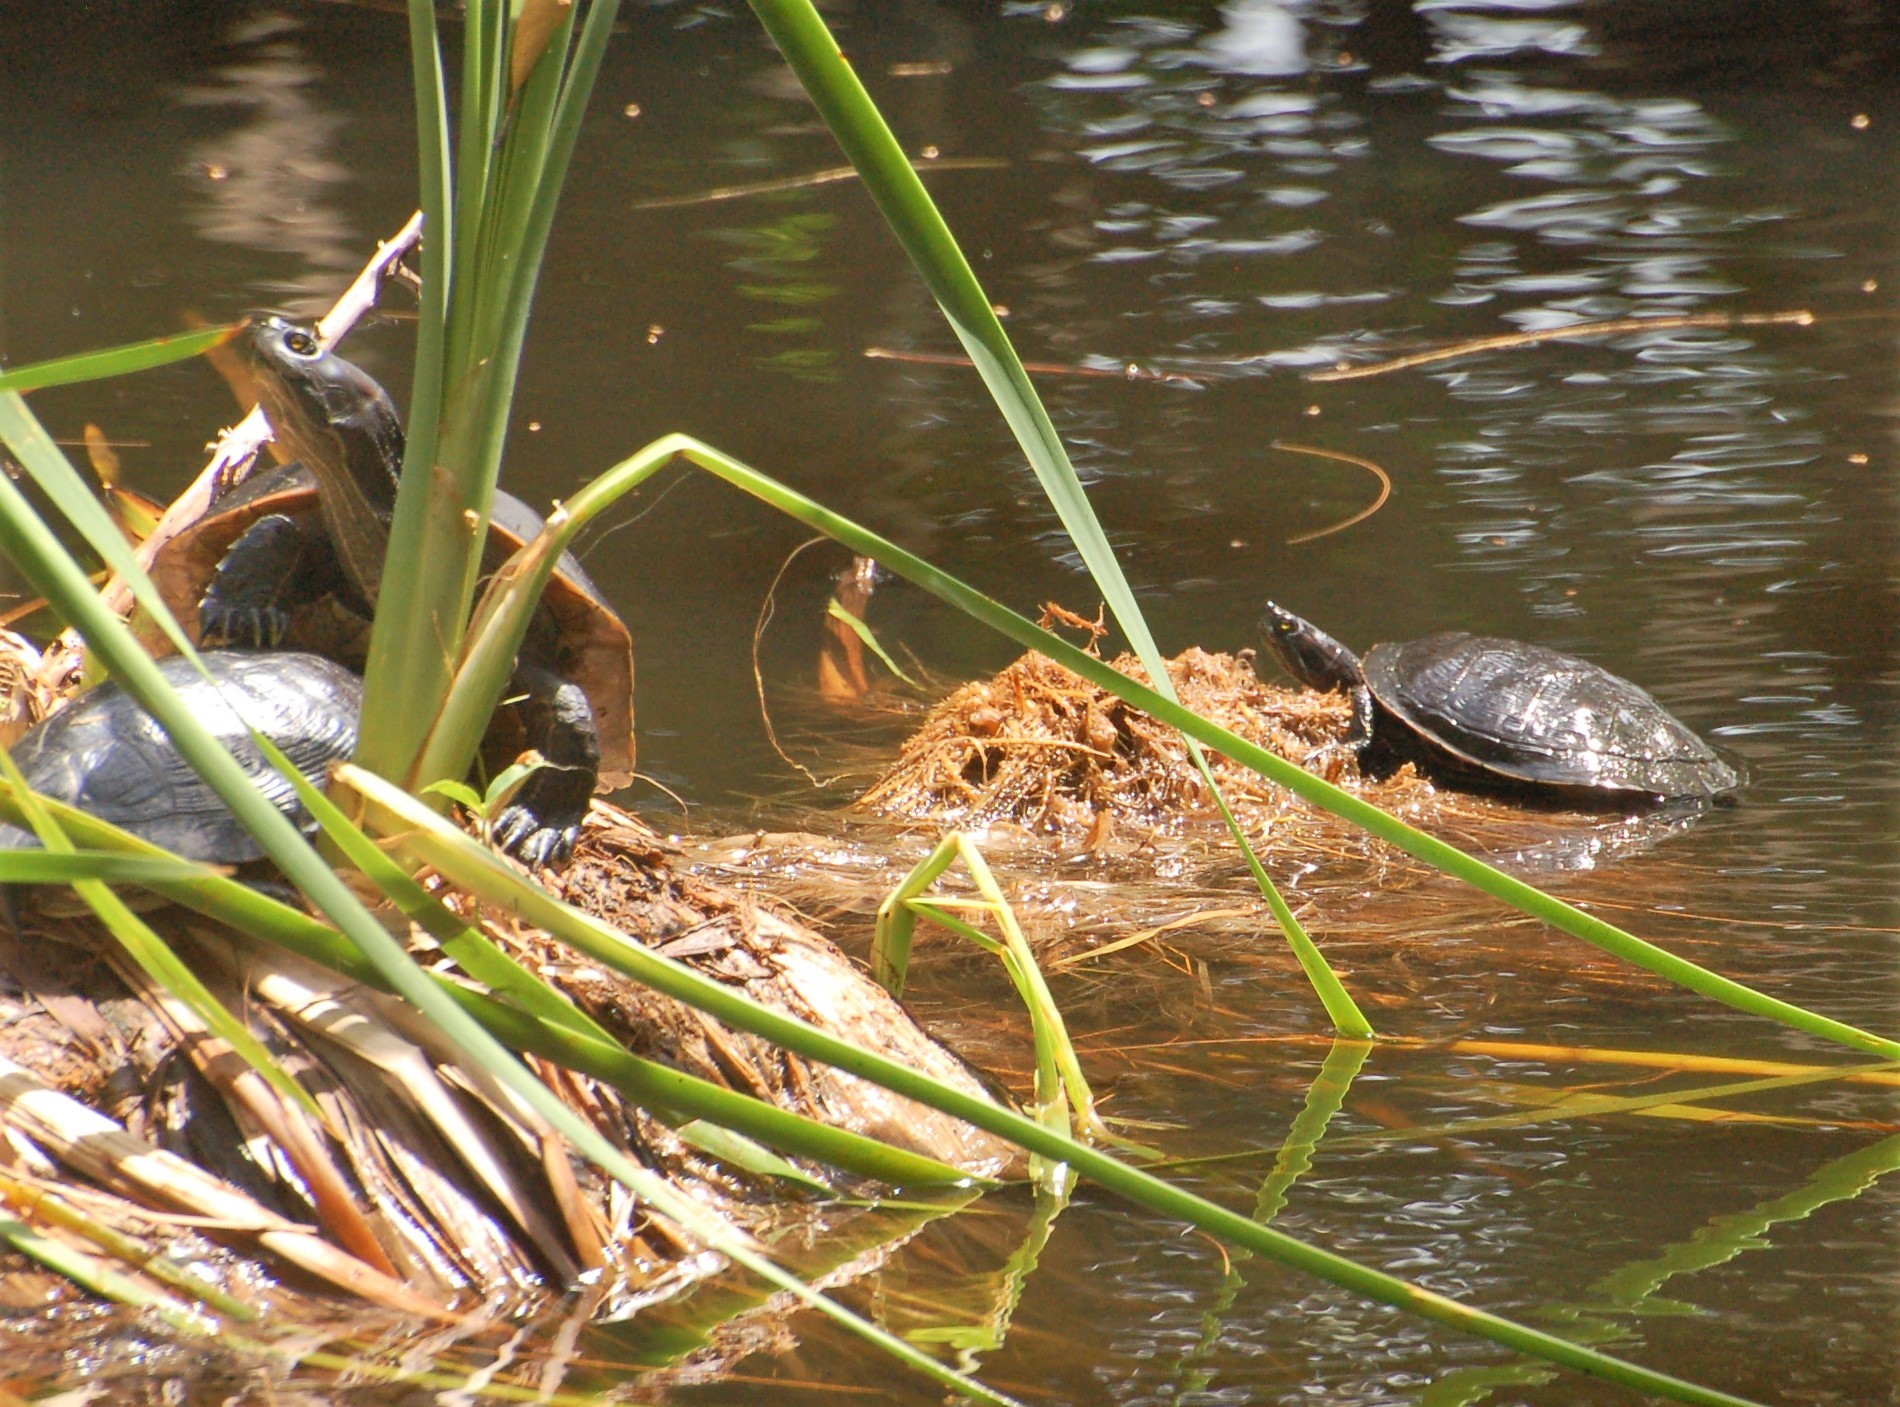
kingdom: Animalia
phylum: Chordata
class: Testudines
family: Emydidae
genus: Trachemys
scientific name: Trachemys stejnegeri
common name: Puerto rican slider
